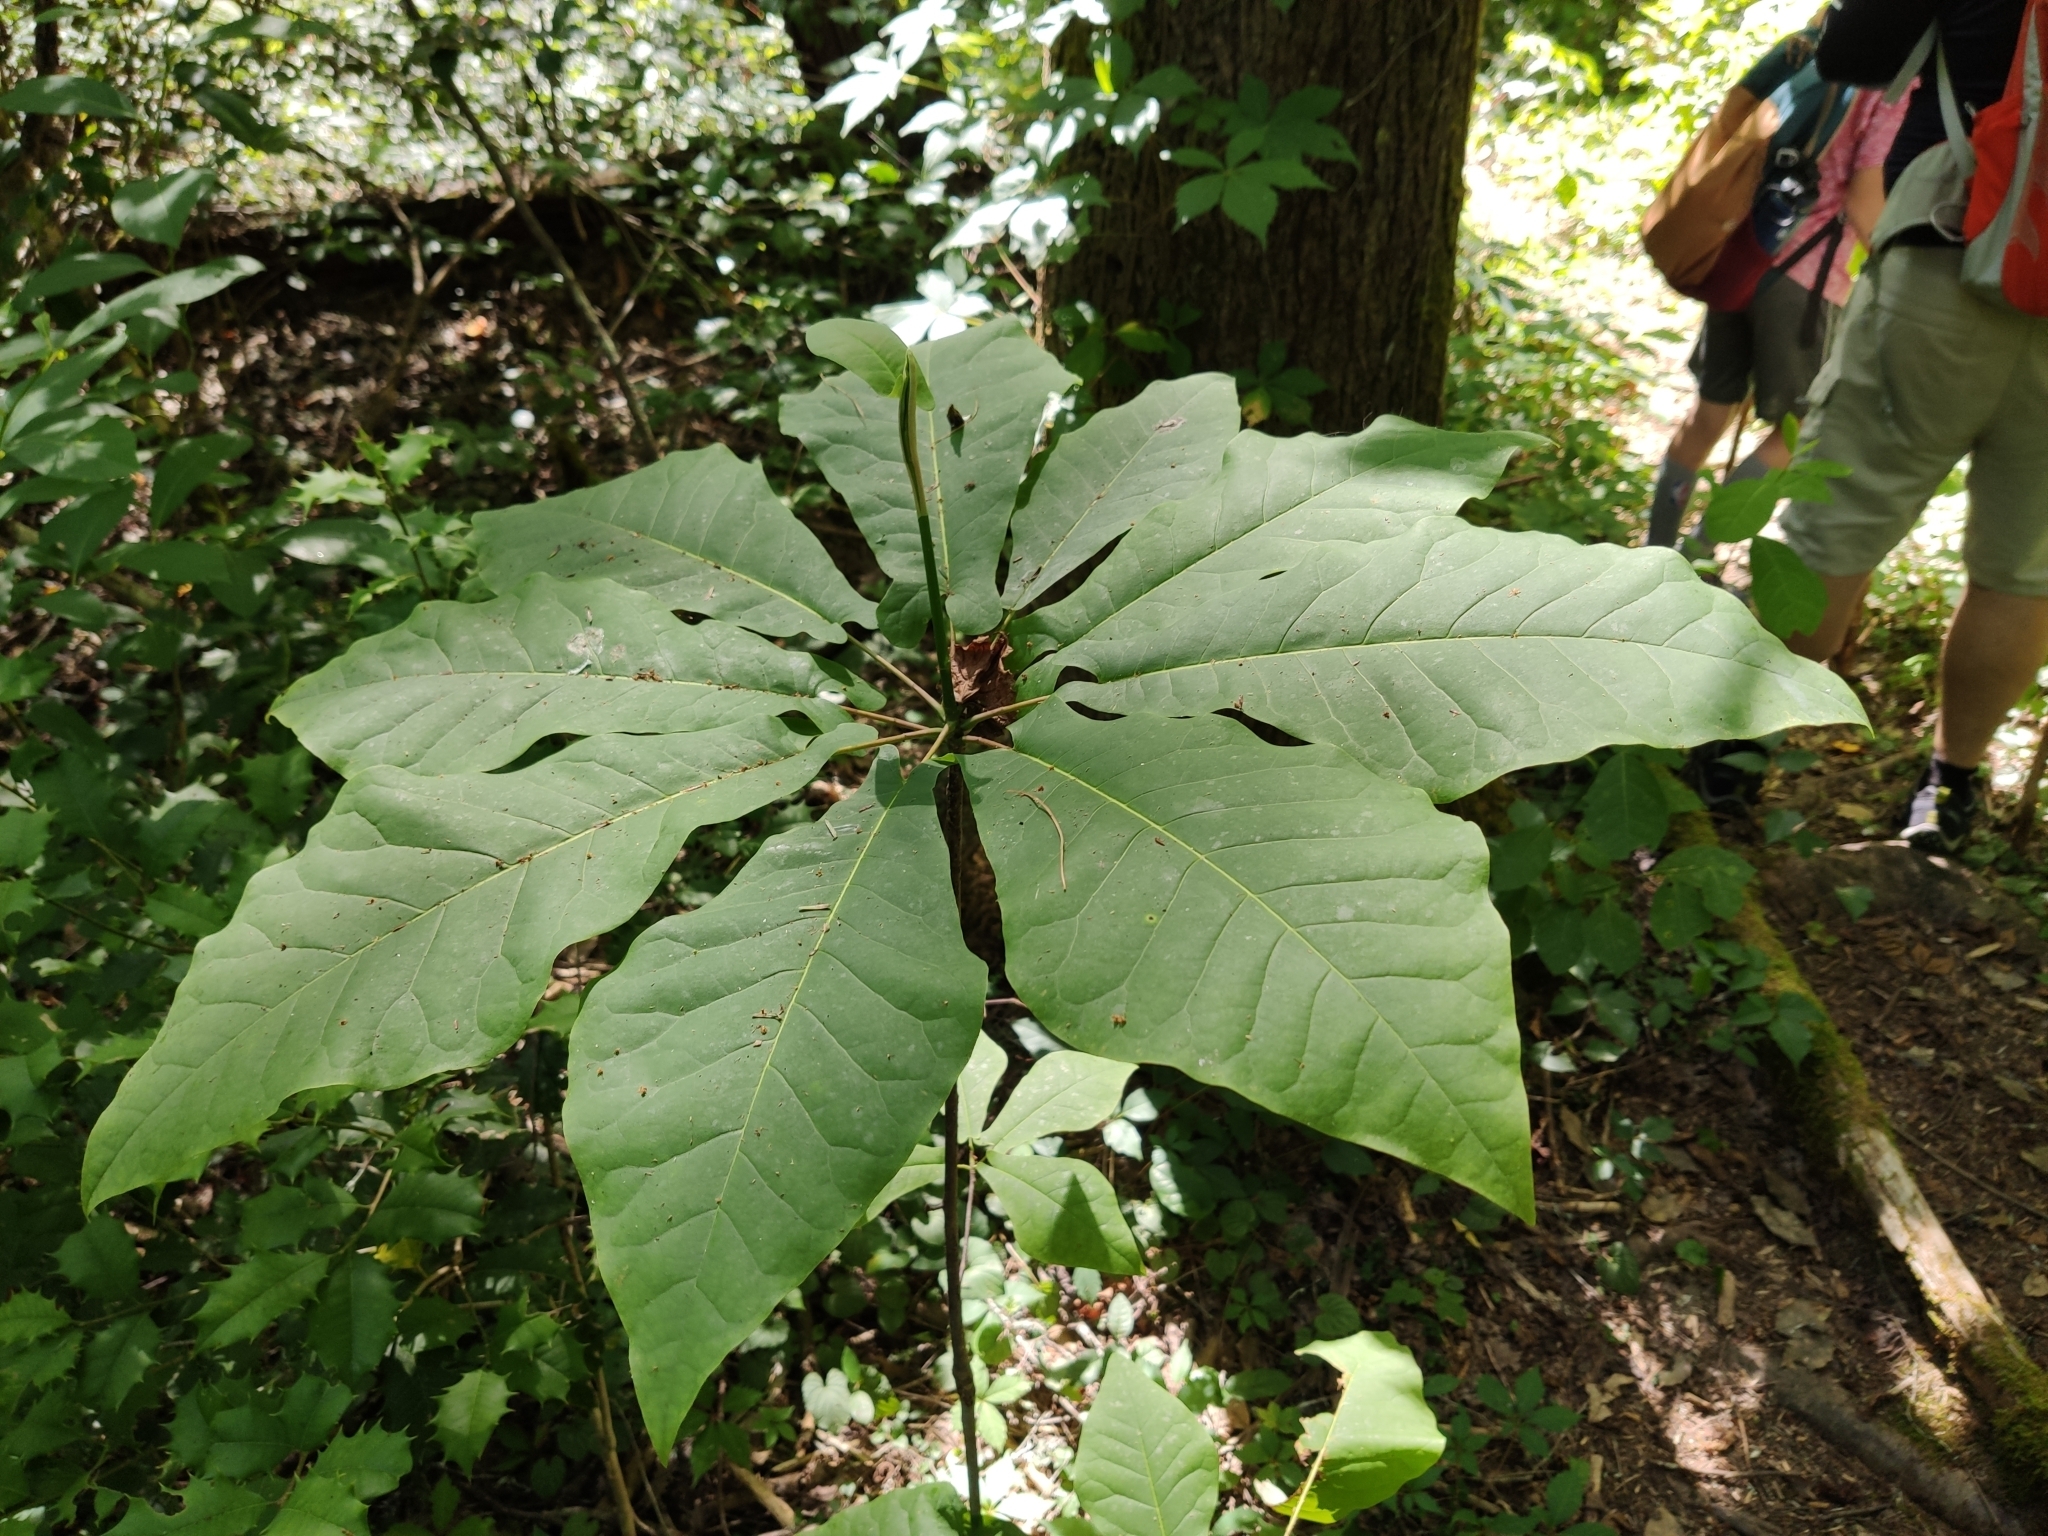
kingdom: Plantae
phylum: Tracheophyta
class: Magnoliopsida
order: Magnoliales
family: Magnoliaceae
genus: Magnolia
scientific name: Magnolia fraseri
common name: Fraser's magnolia
